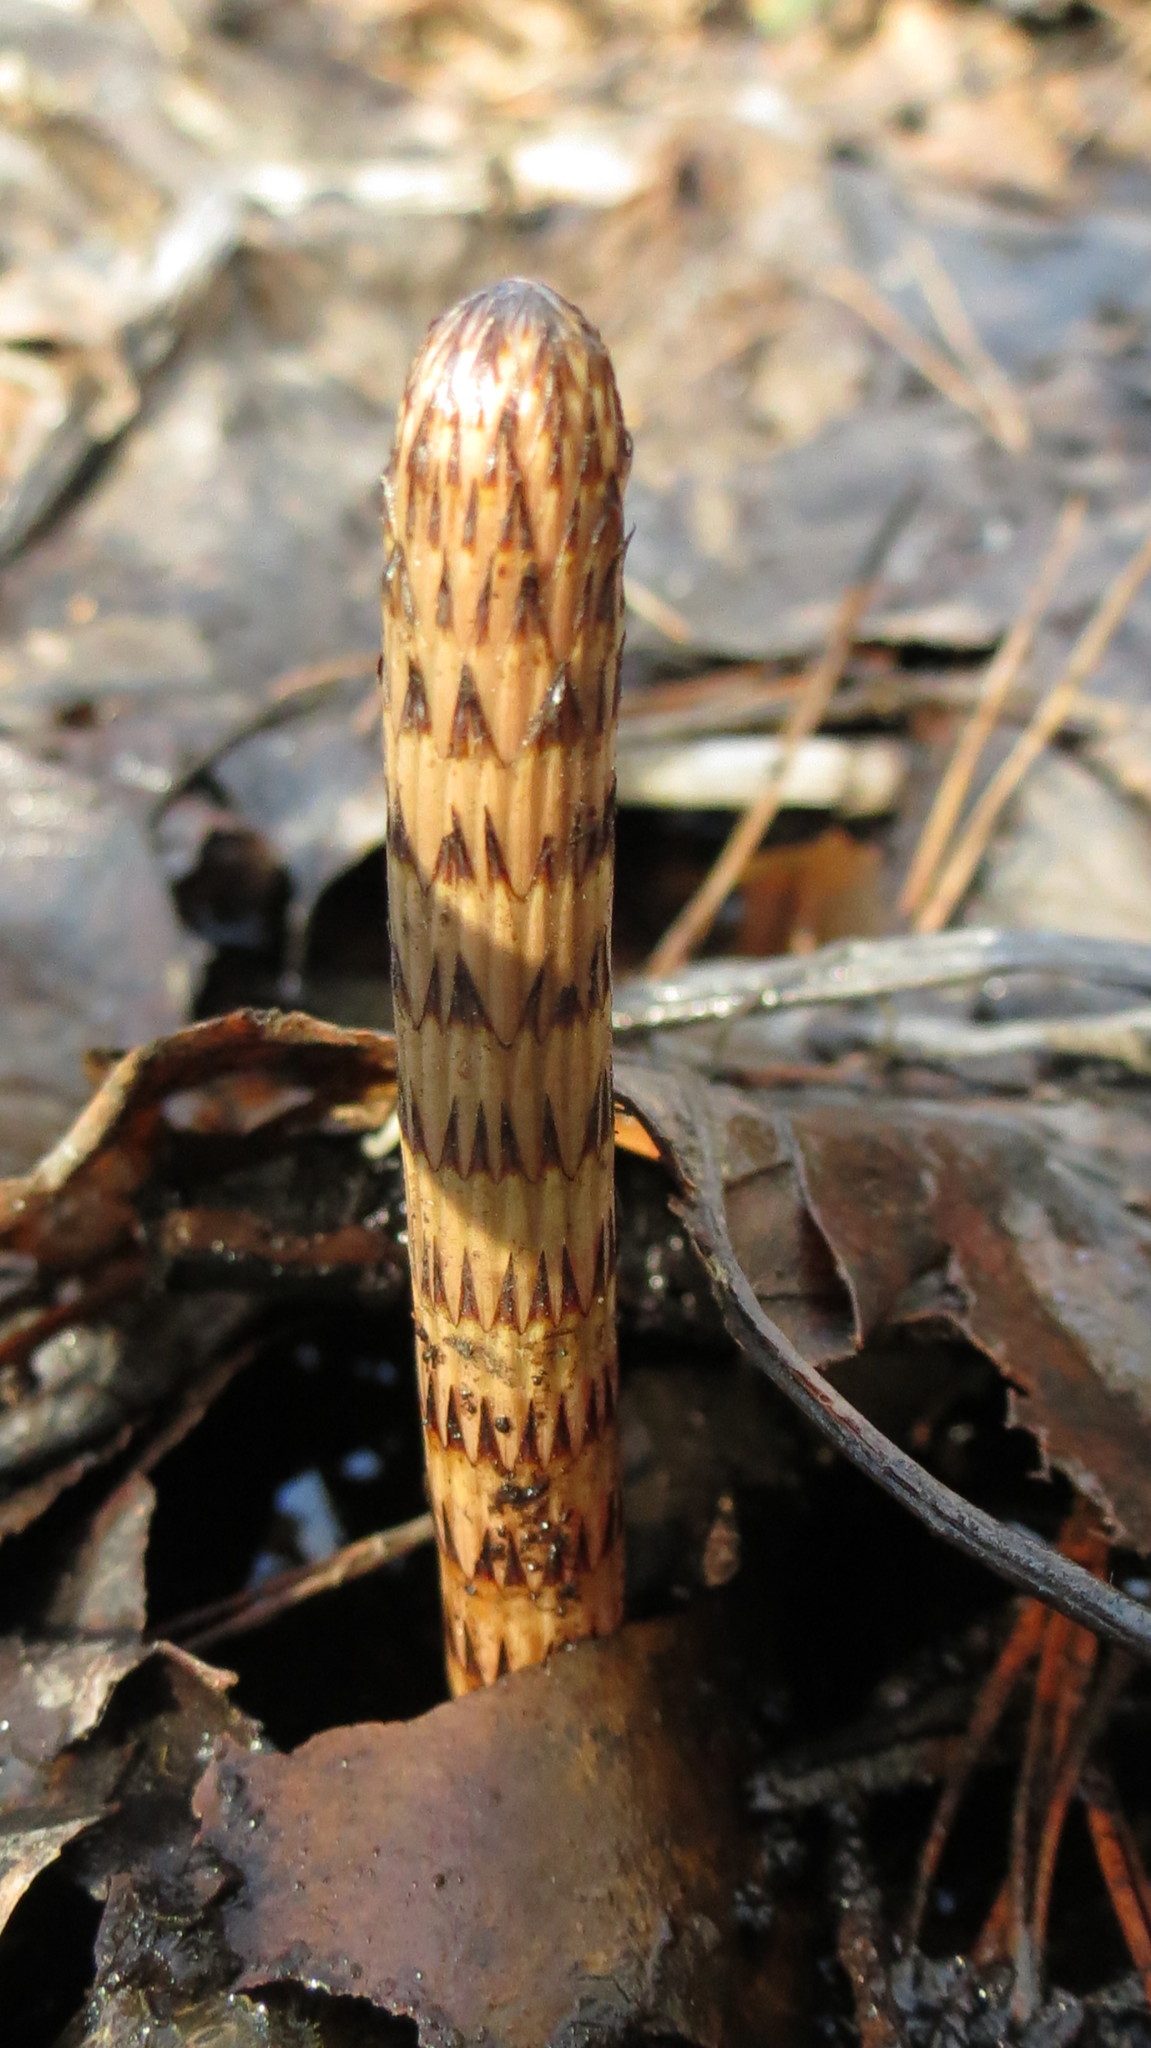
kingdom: Plantae
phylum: Tracheophyta
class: Polypodiopsida
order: Equisetales
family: Equisetaceae
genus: Equisetum
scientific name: Equisetum fluviatile
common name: Water horsetail
